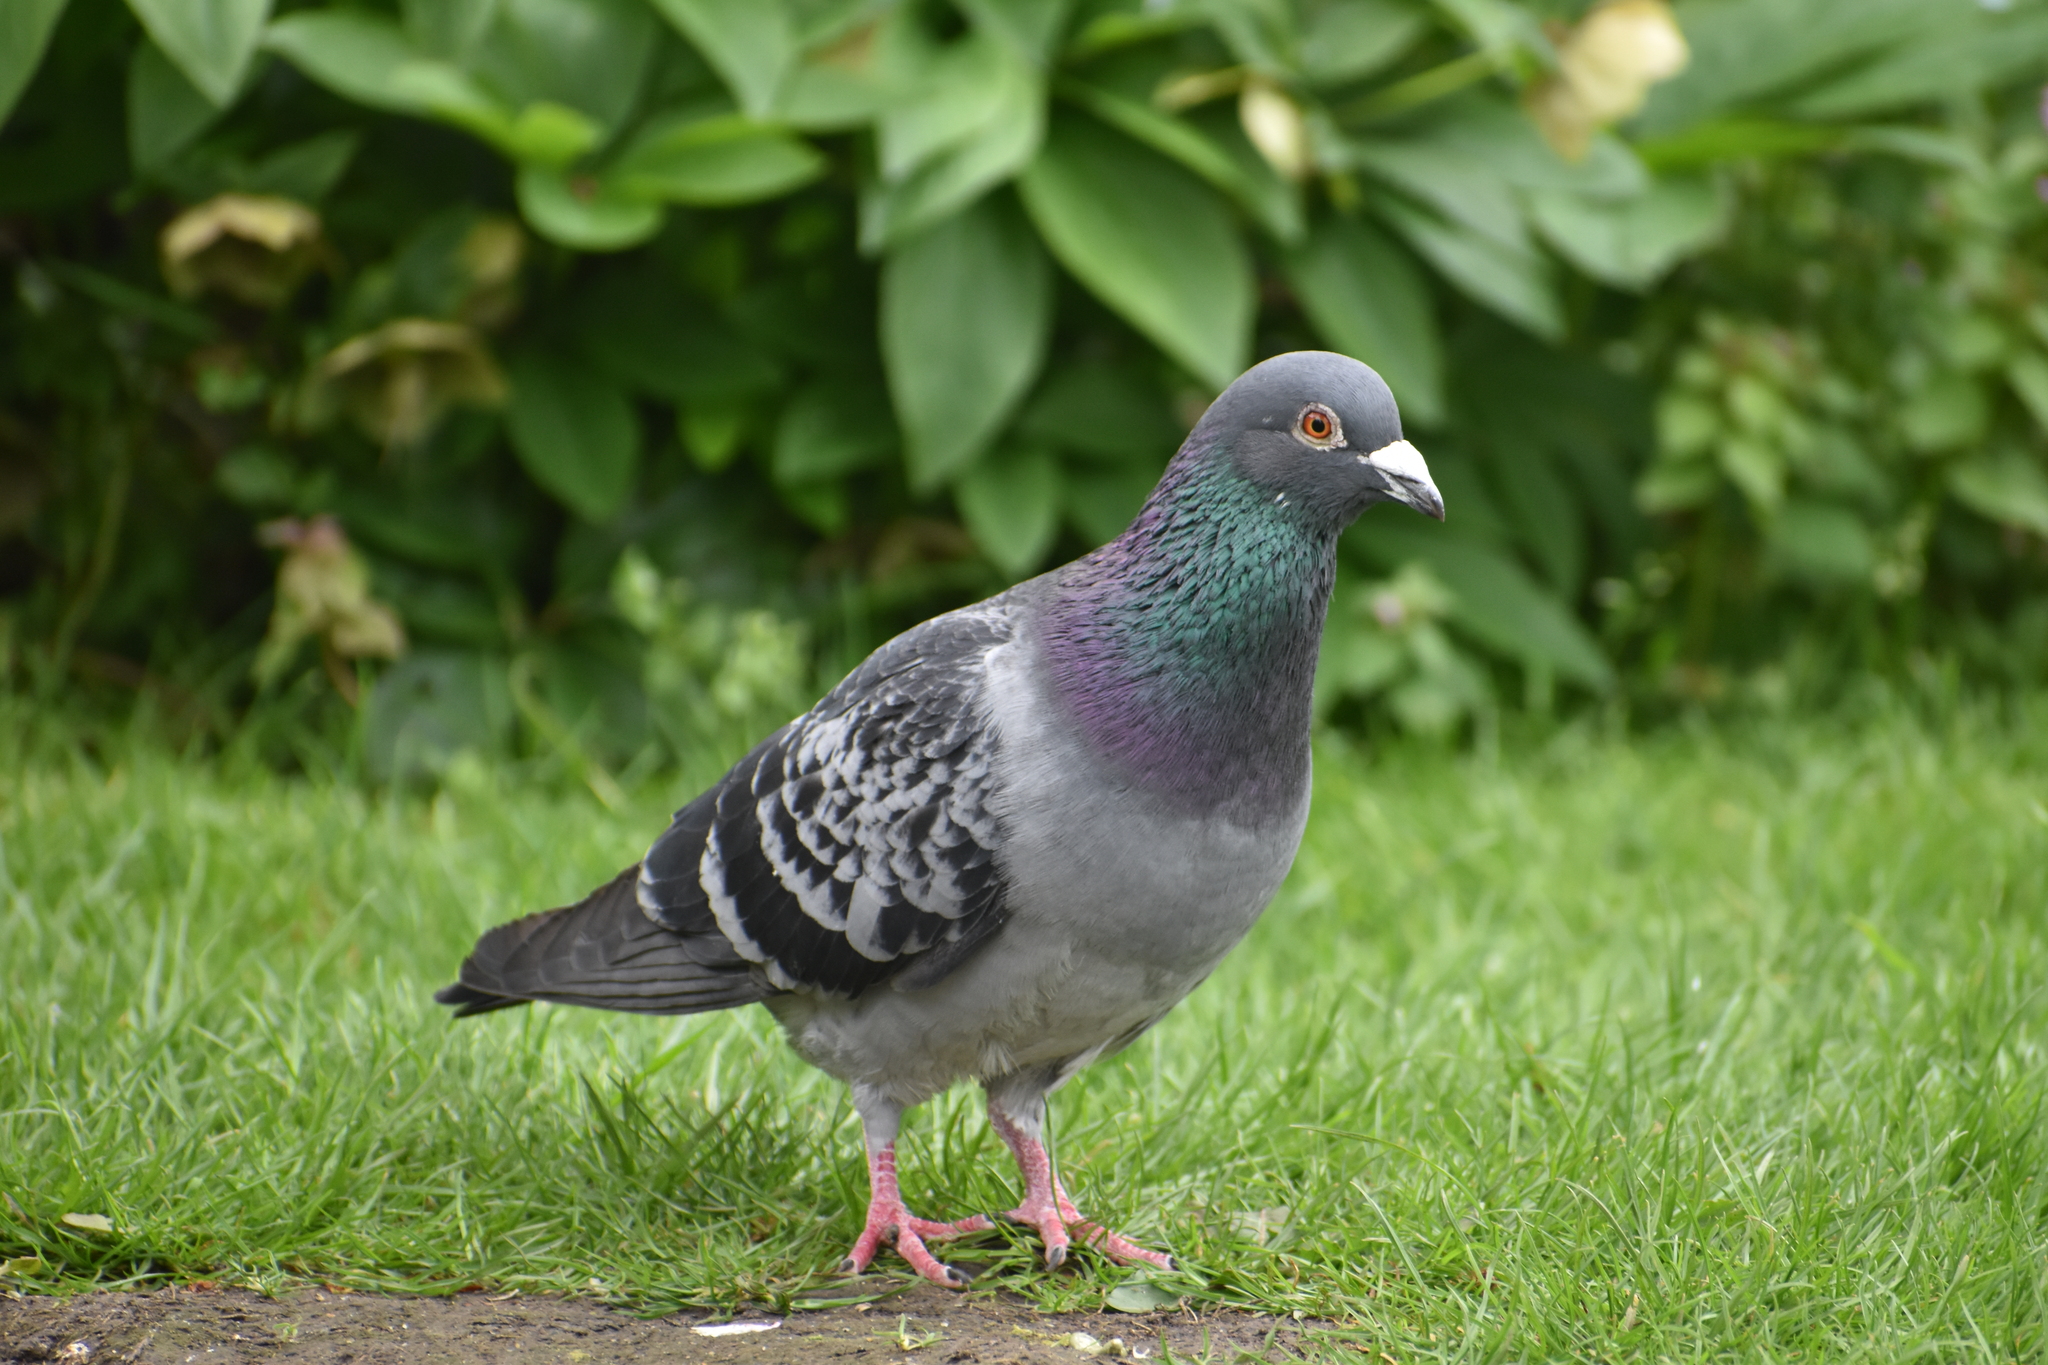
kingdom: Animalia
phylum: Chordata
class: Aves
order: Columbiformes
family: Columbidae
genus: Columba
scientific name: Columba livia
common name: Rock pigeon
